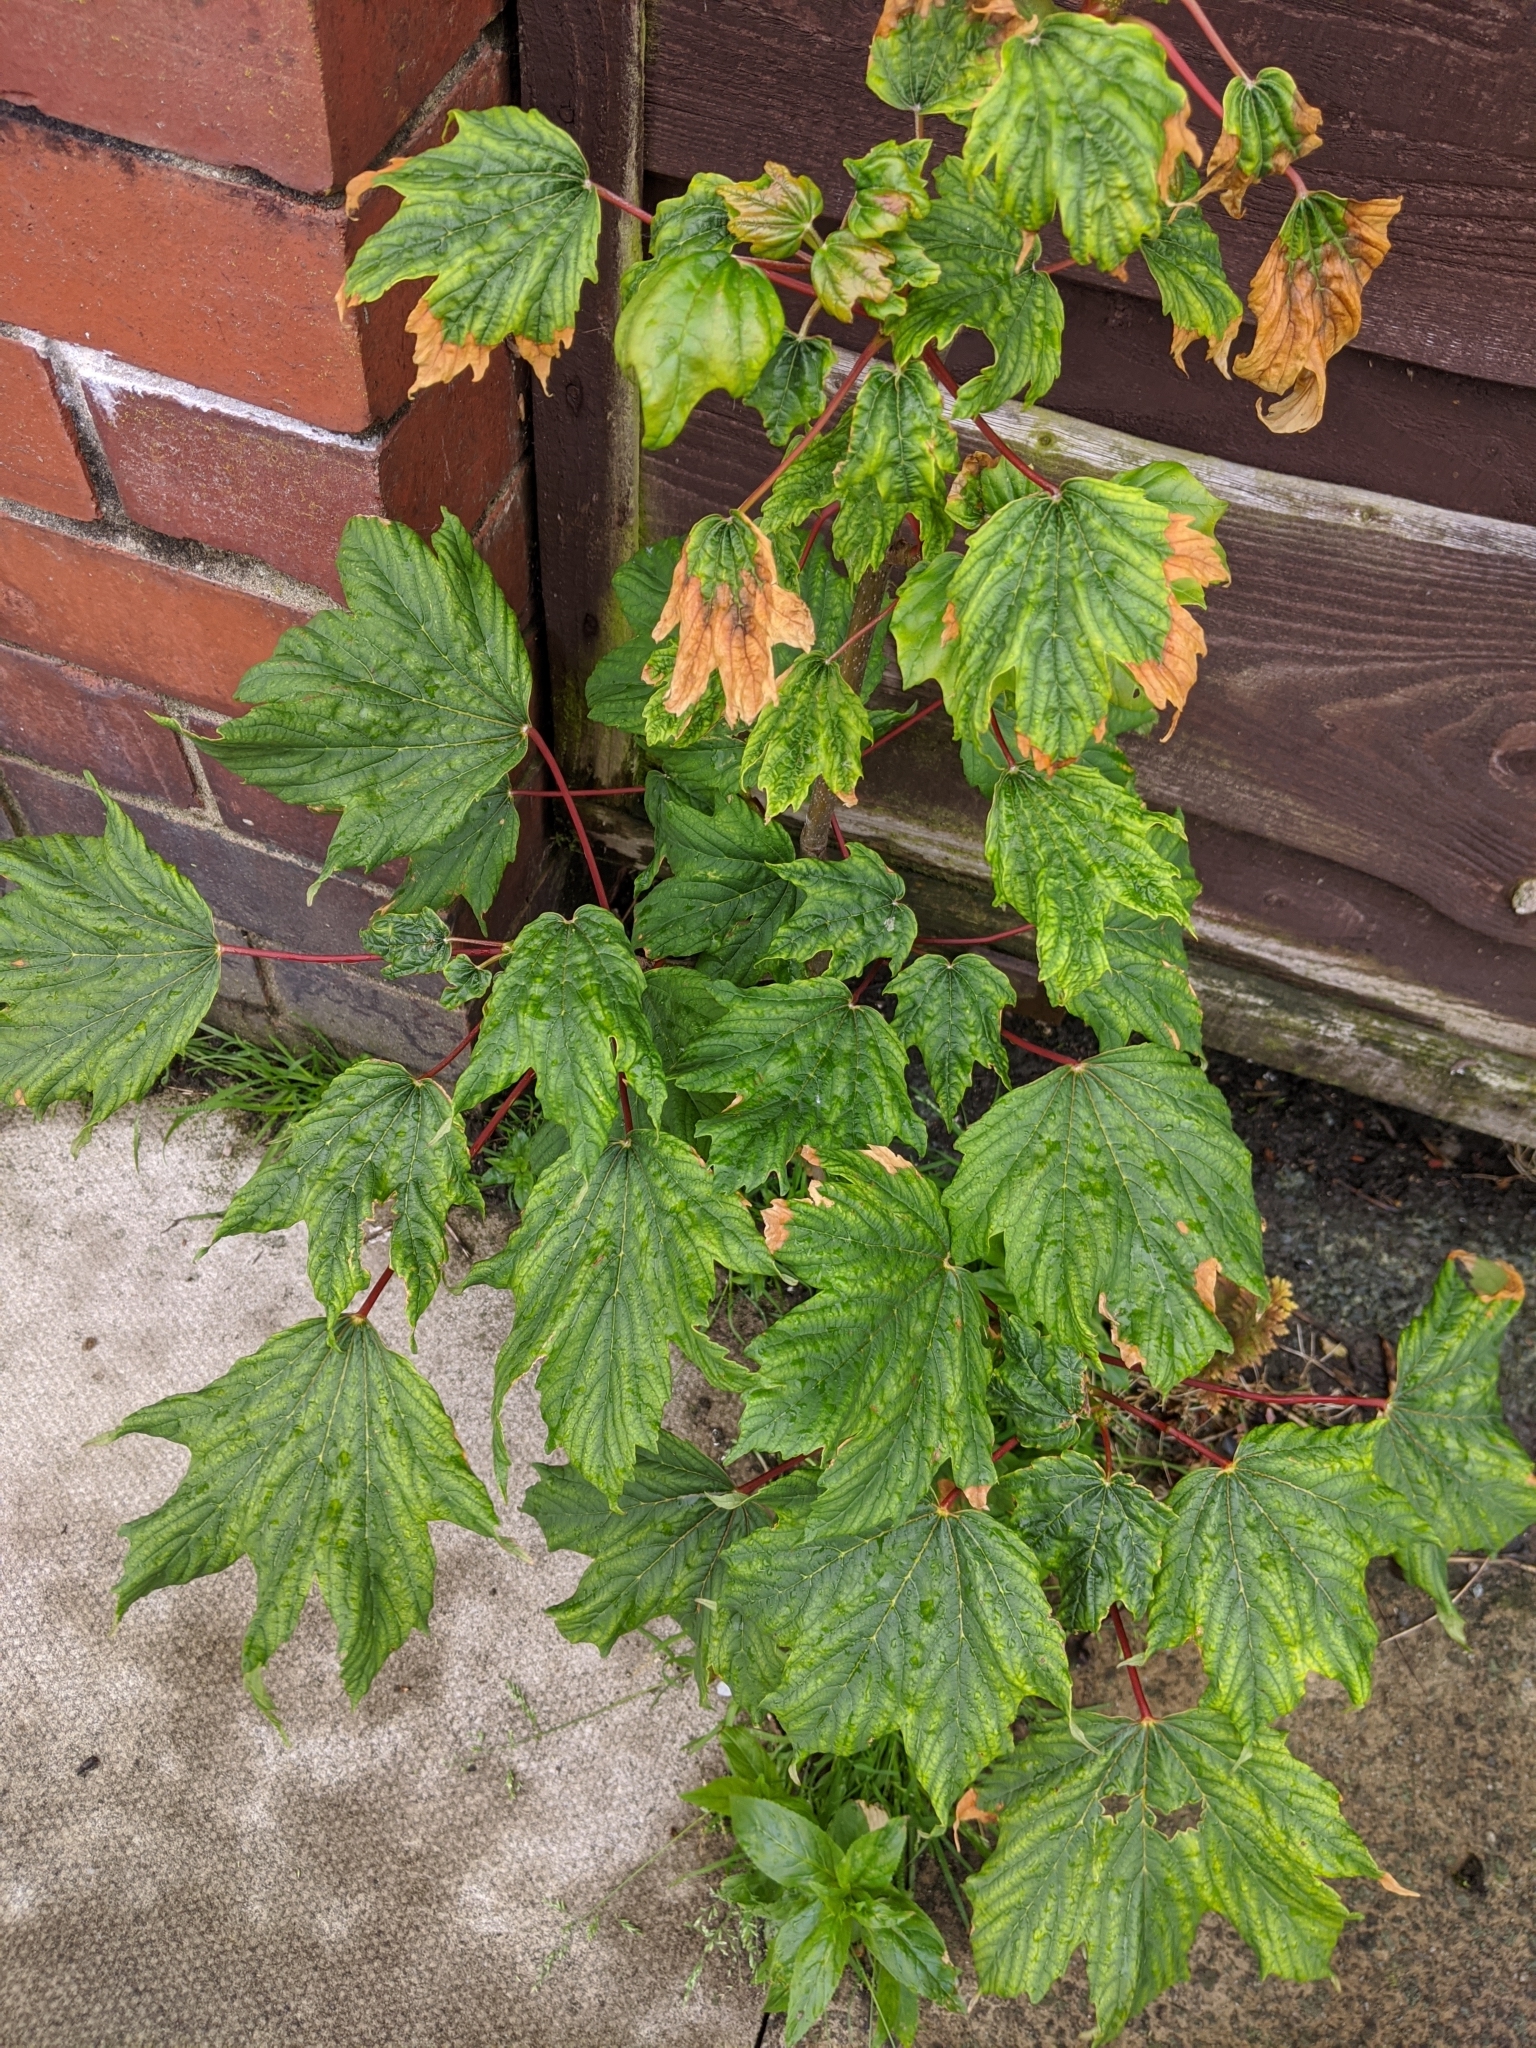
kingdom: Plantae
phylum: Tracheophyta
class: Magnoliopsida
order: Sapindales
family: Sapindaceae
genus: Acer
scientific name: Acer pseudoplatanus
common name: Sycamore
